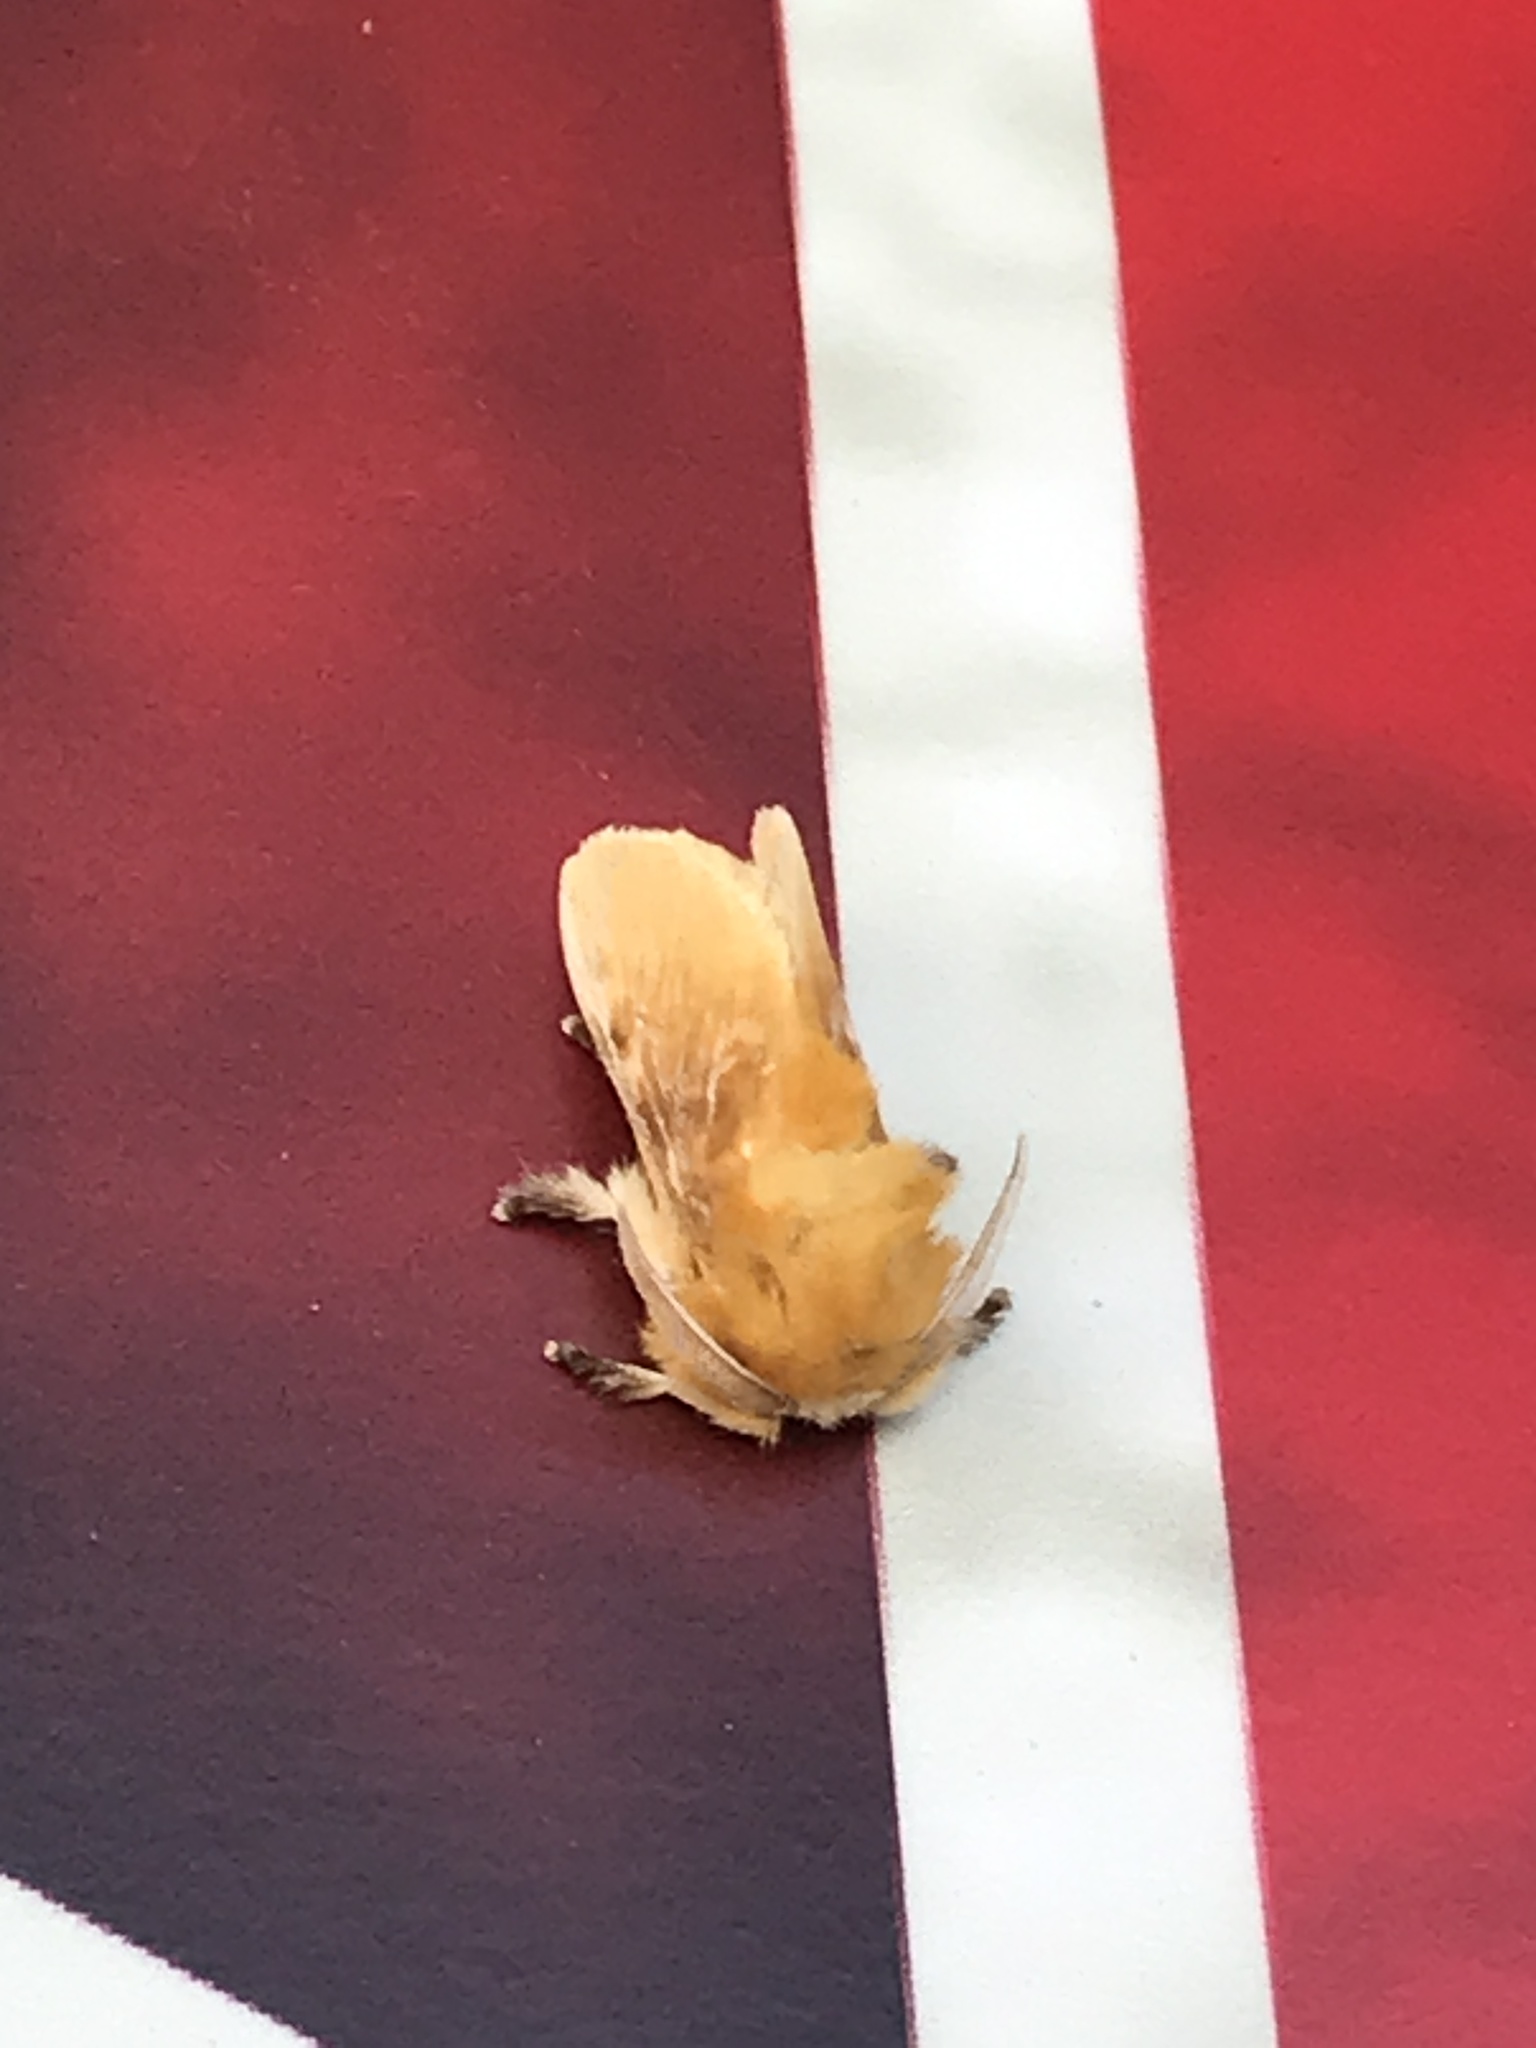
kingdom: Animalia
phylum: Arthropoda
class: Insecta
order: Lepidoptera
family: Megalopygidae
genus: Megalopyge
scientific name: Megalopyge opercularis
